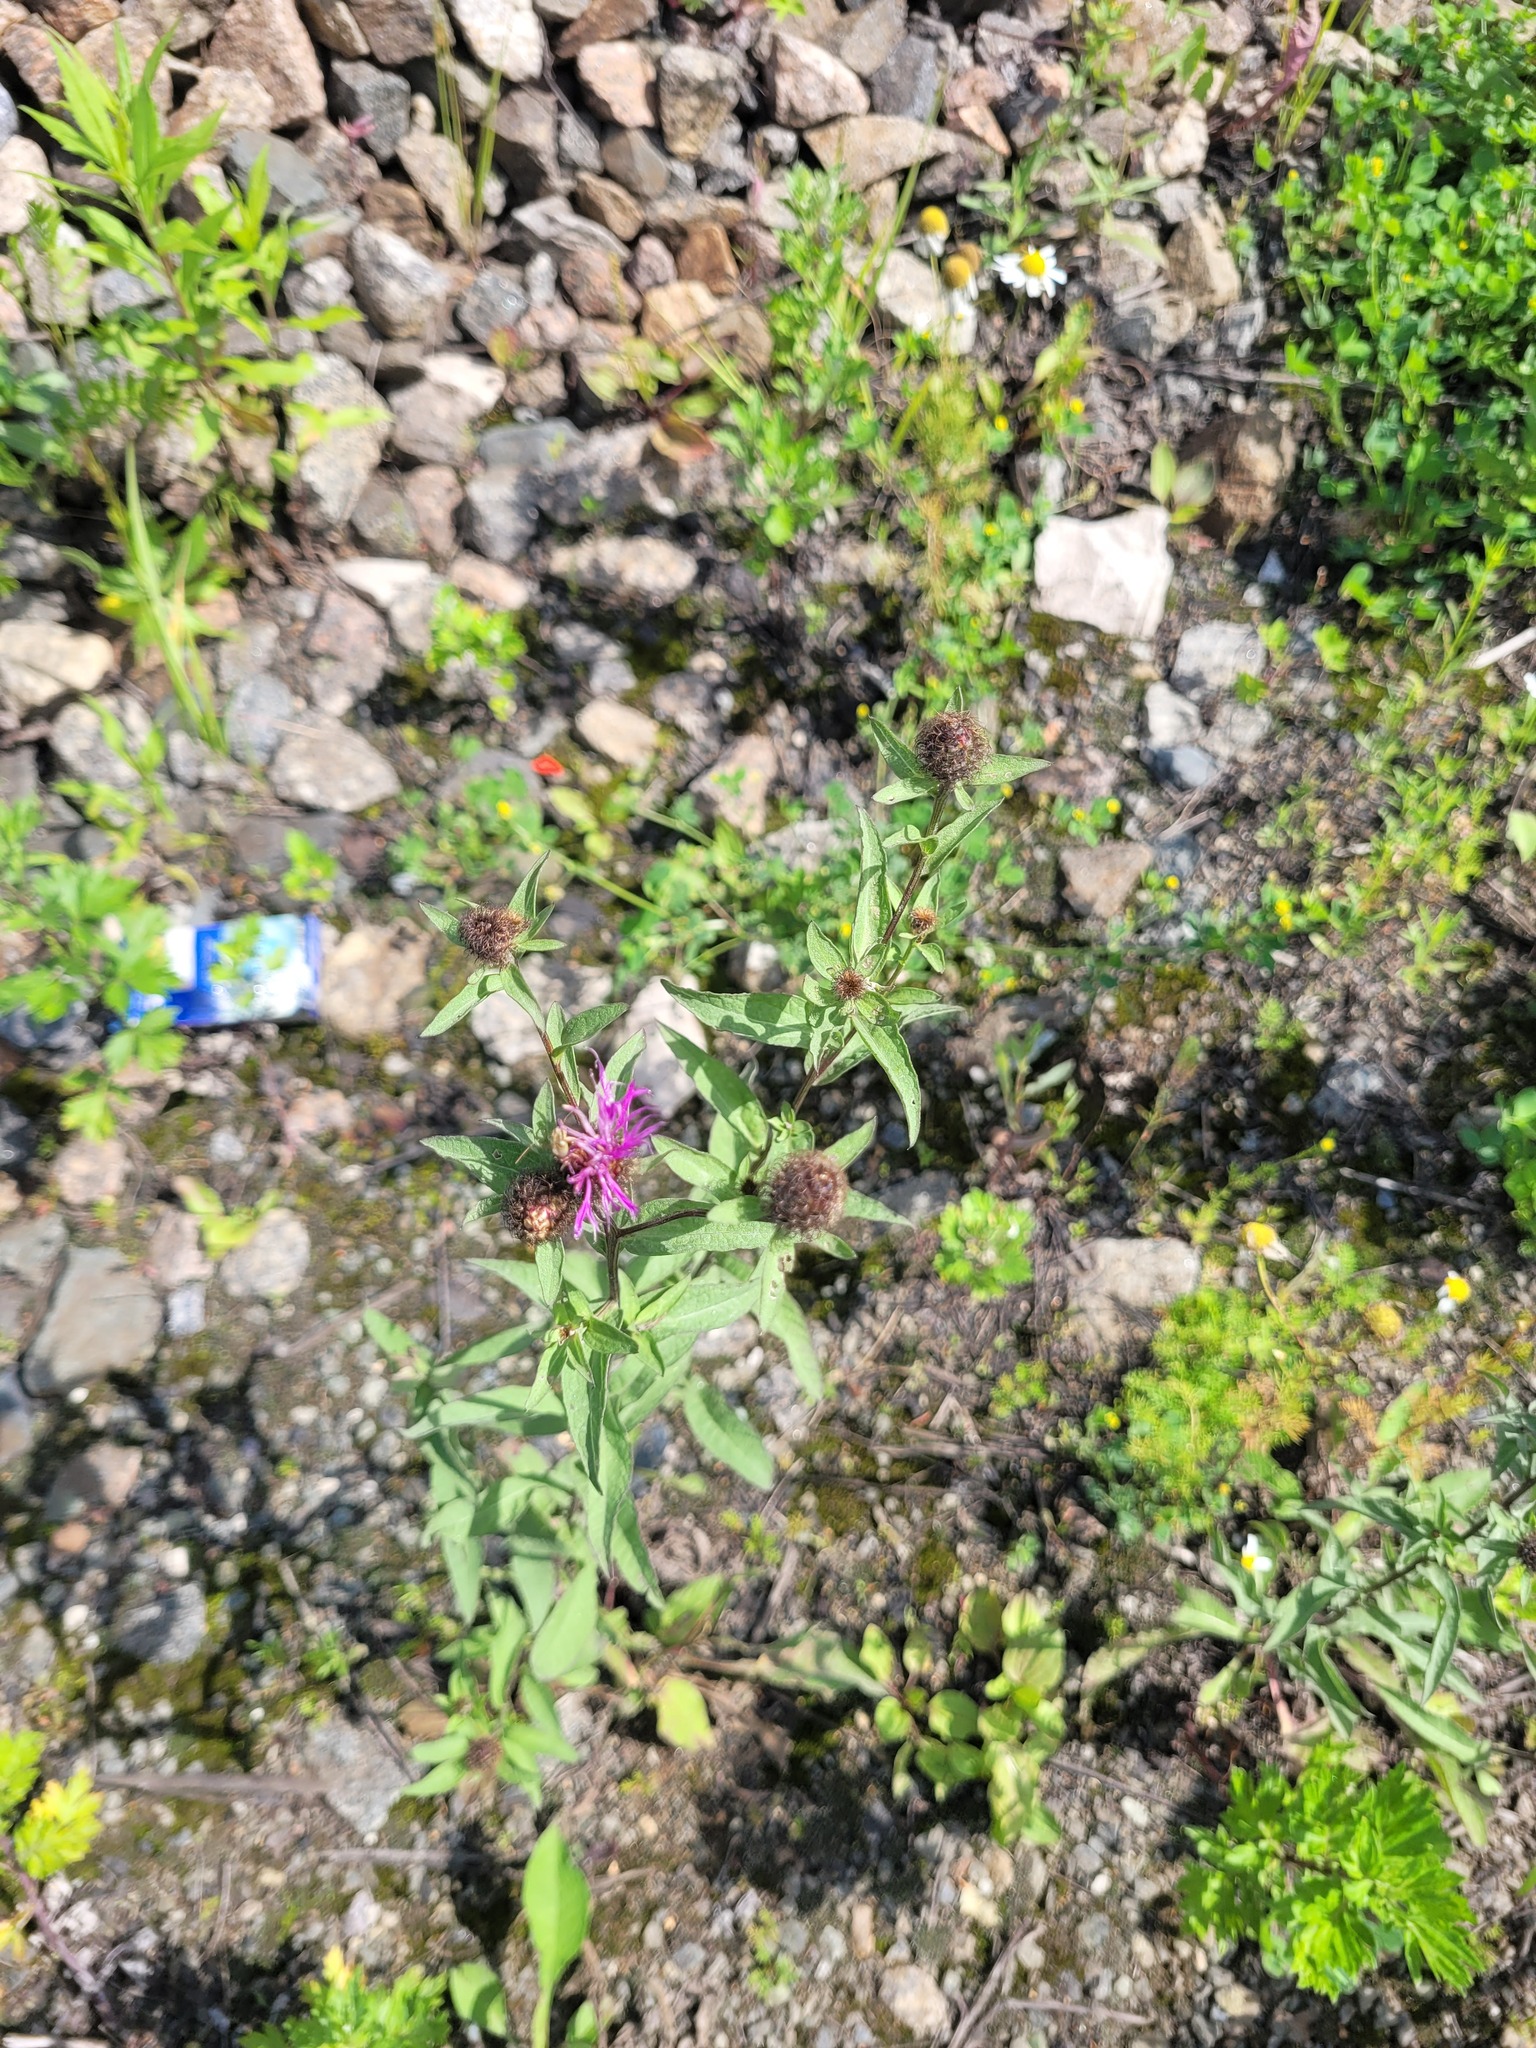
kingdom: Plantae
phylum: Tracheophyta
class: Magnoliopsida
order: Asterales
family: Asteraceae
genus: Centaurea
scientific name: Centaurea pseudophrygia
